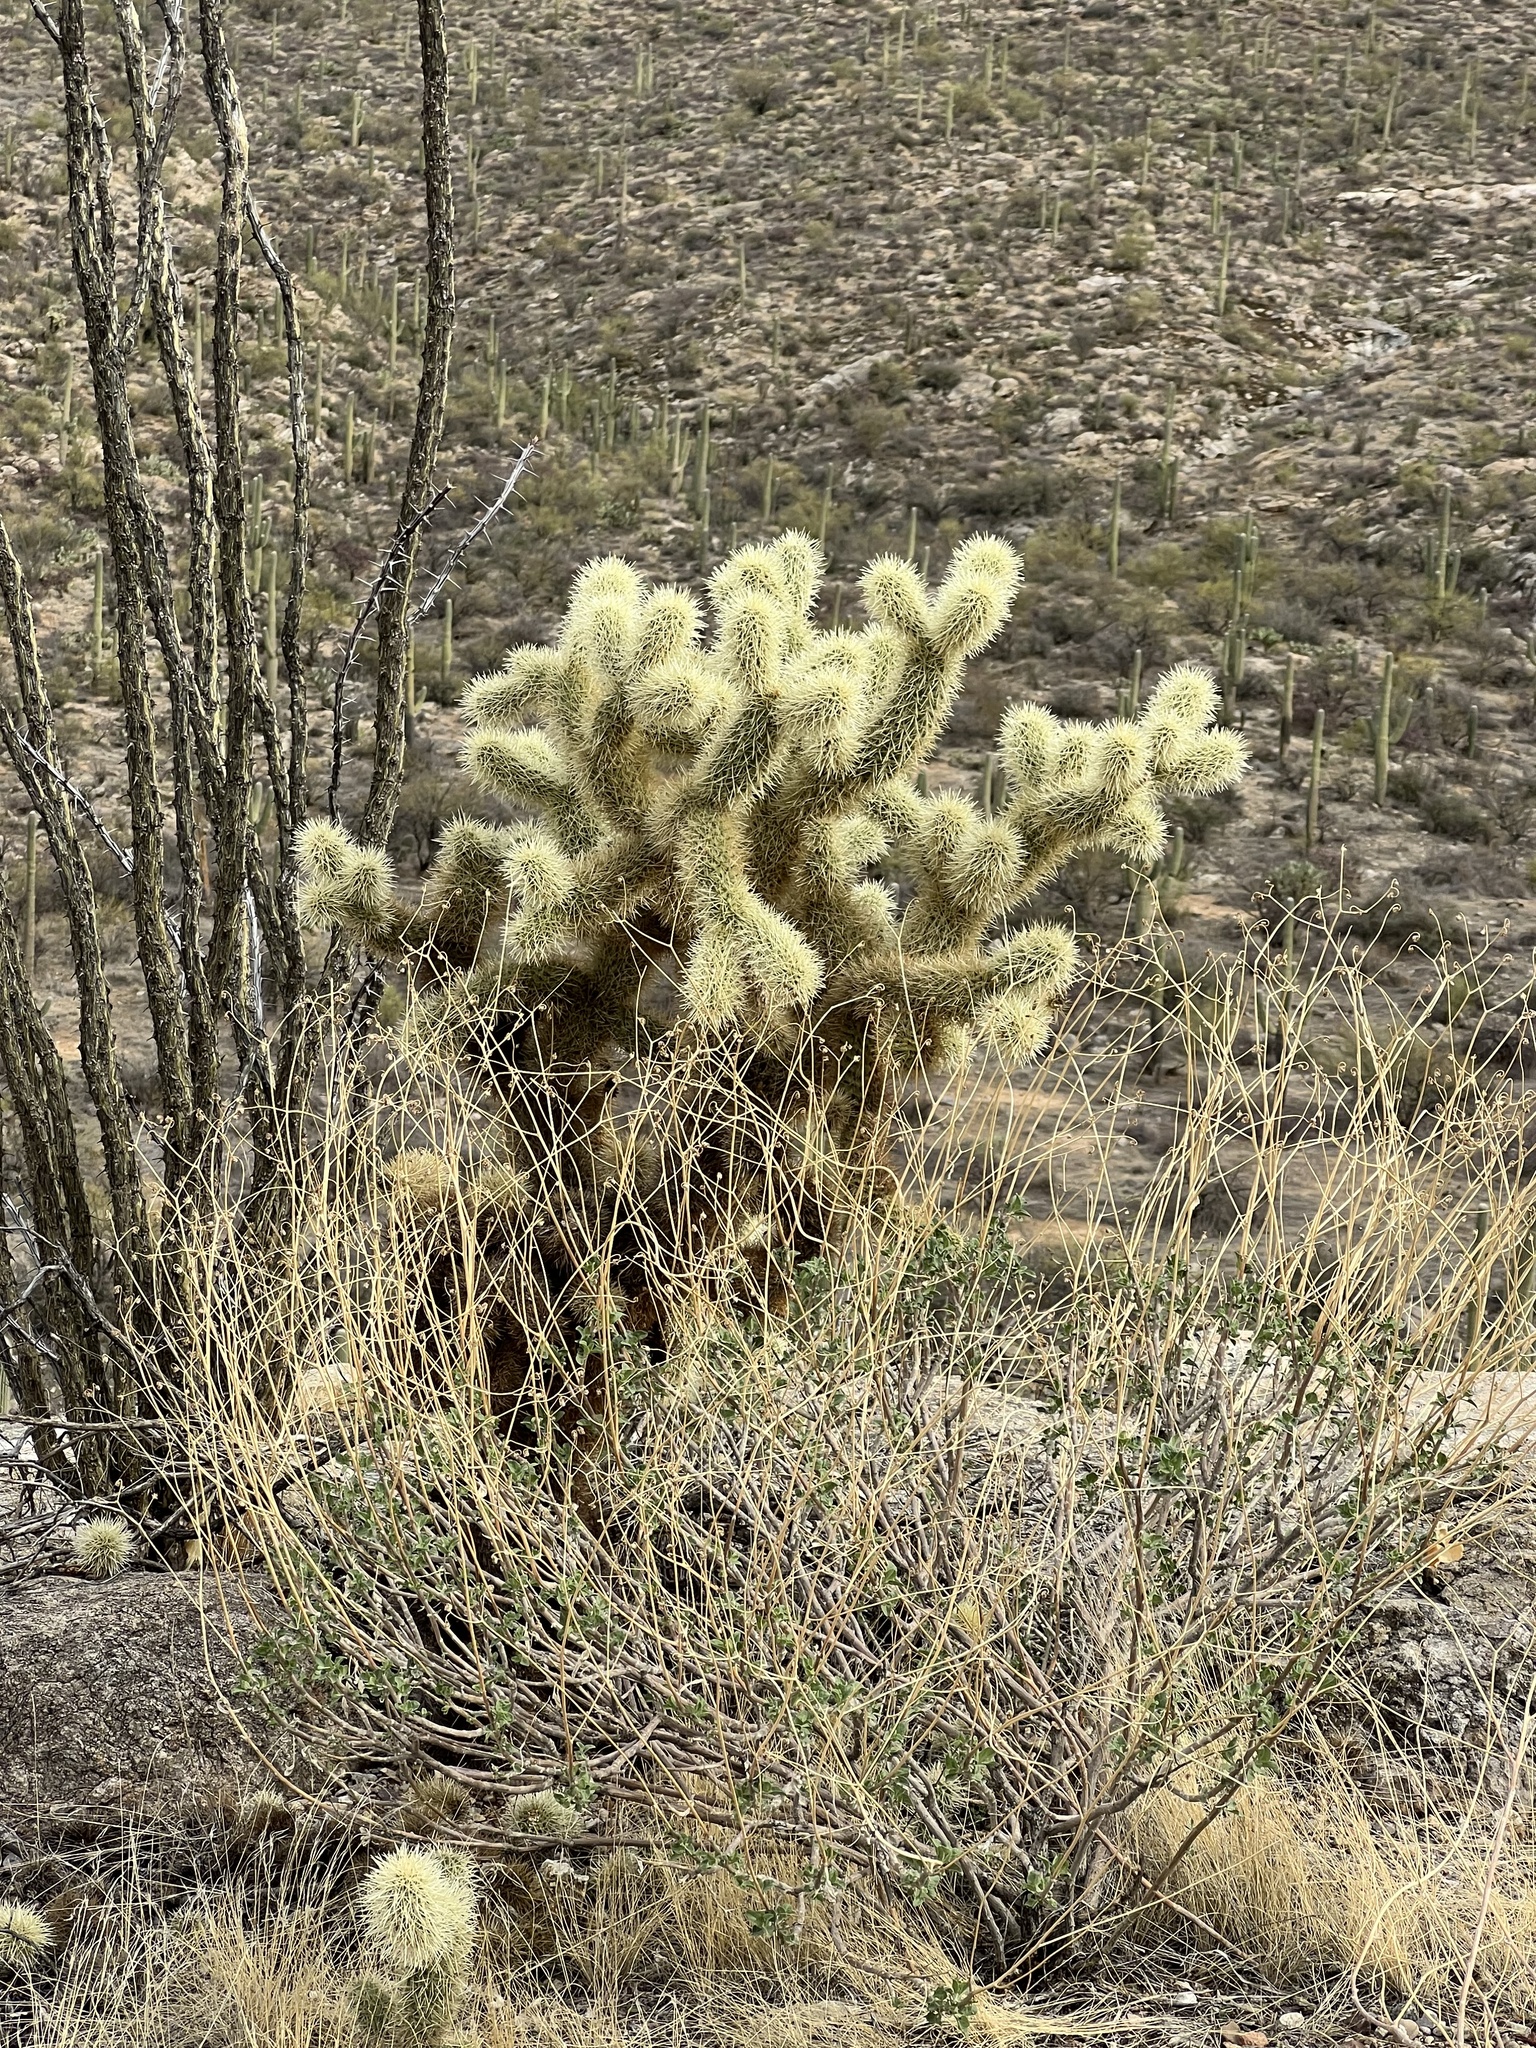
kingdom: Plantae
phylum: Tracheophyta
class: Magnoliopsida
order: Caryophyllales
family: Cactaceae
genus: Cylindropuntia
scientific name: Cylindropuntia fosbergii
